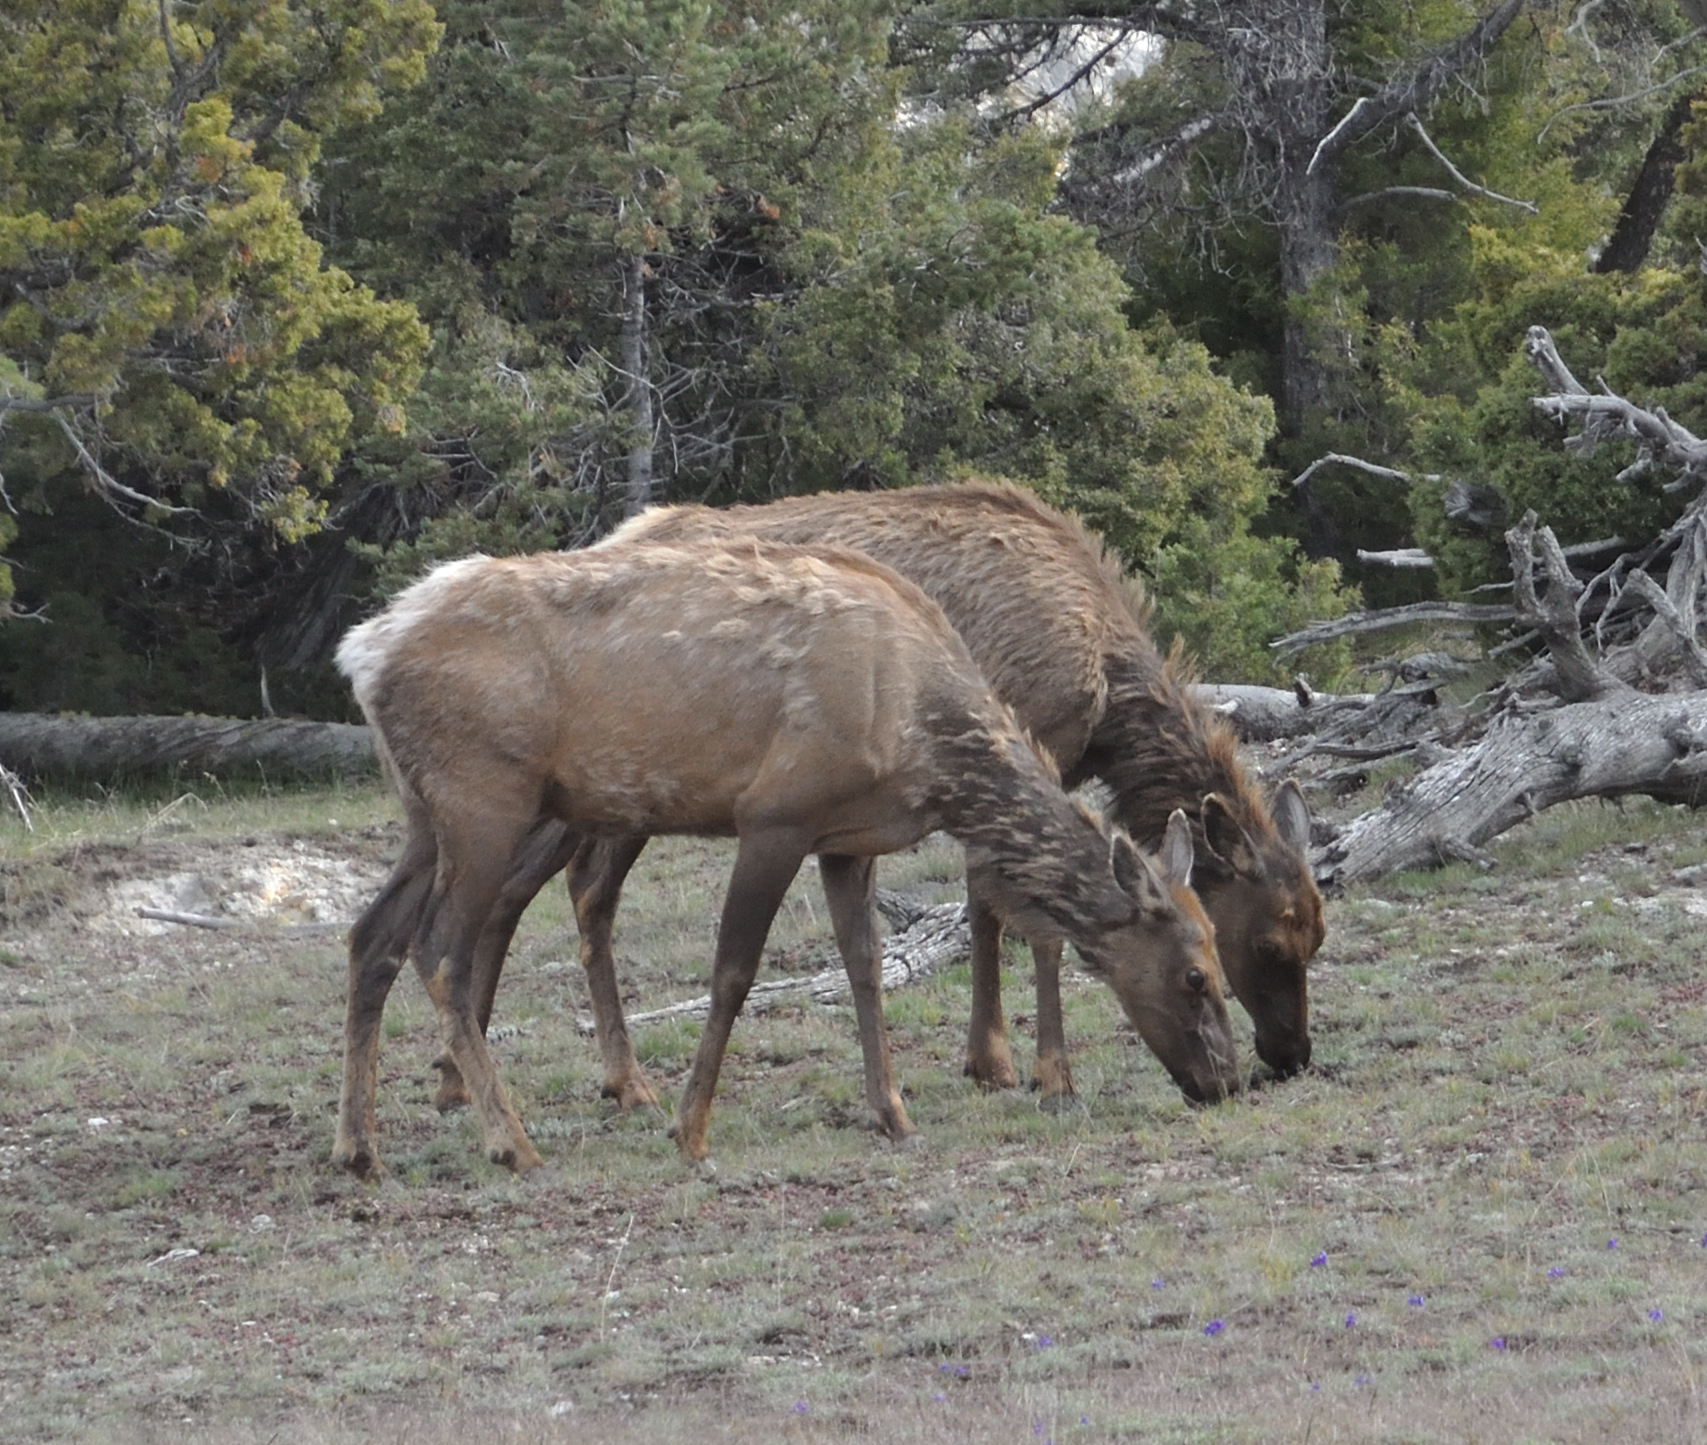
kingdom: Animalia
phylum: Chordata
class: Mammalia
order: Artiodactyla
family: Cervidae
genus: Cervus
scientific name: Cervus elaphus
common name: Red deer
